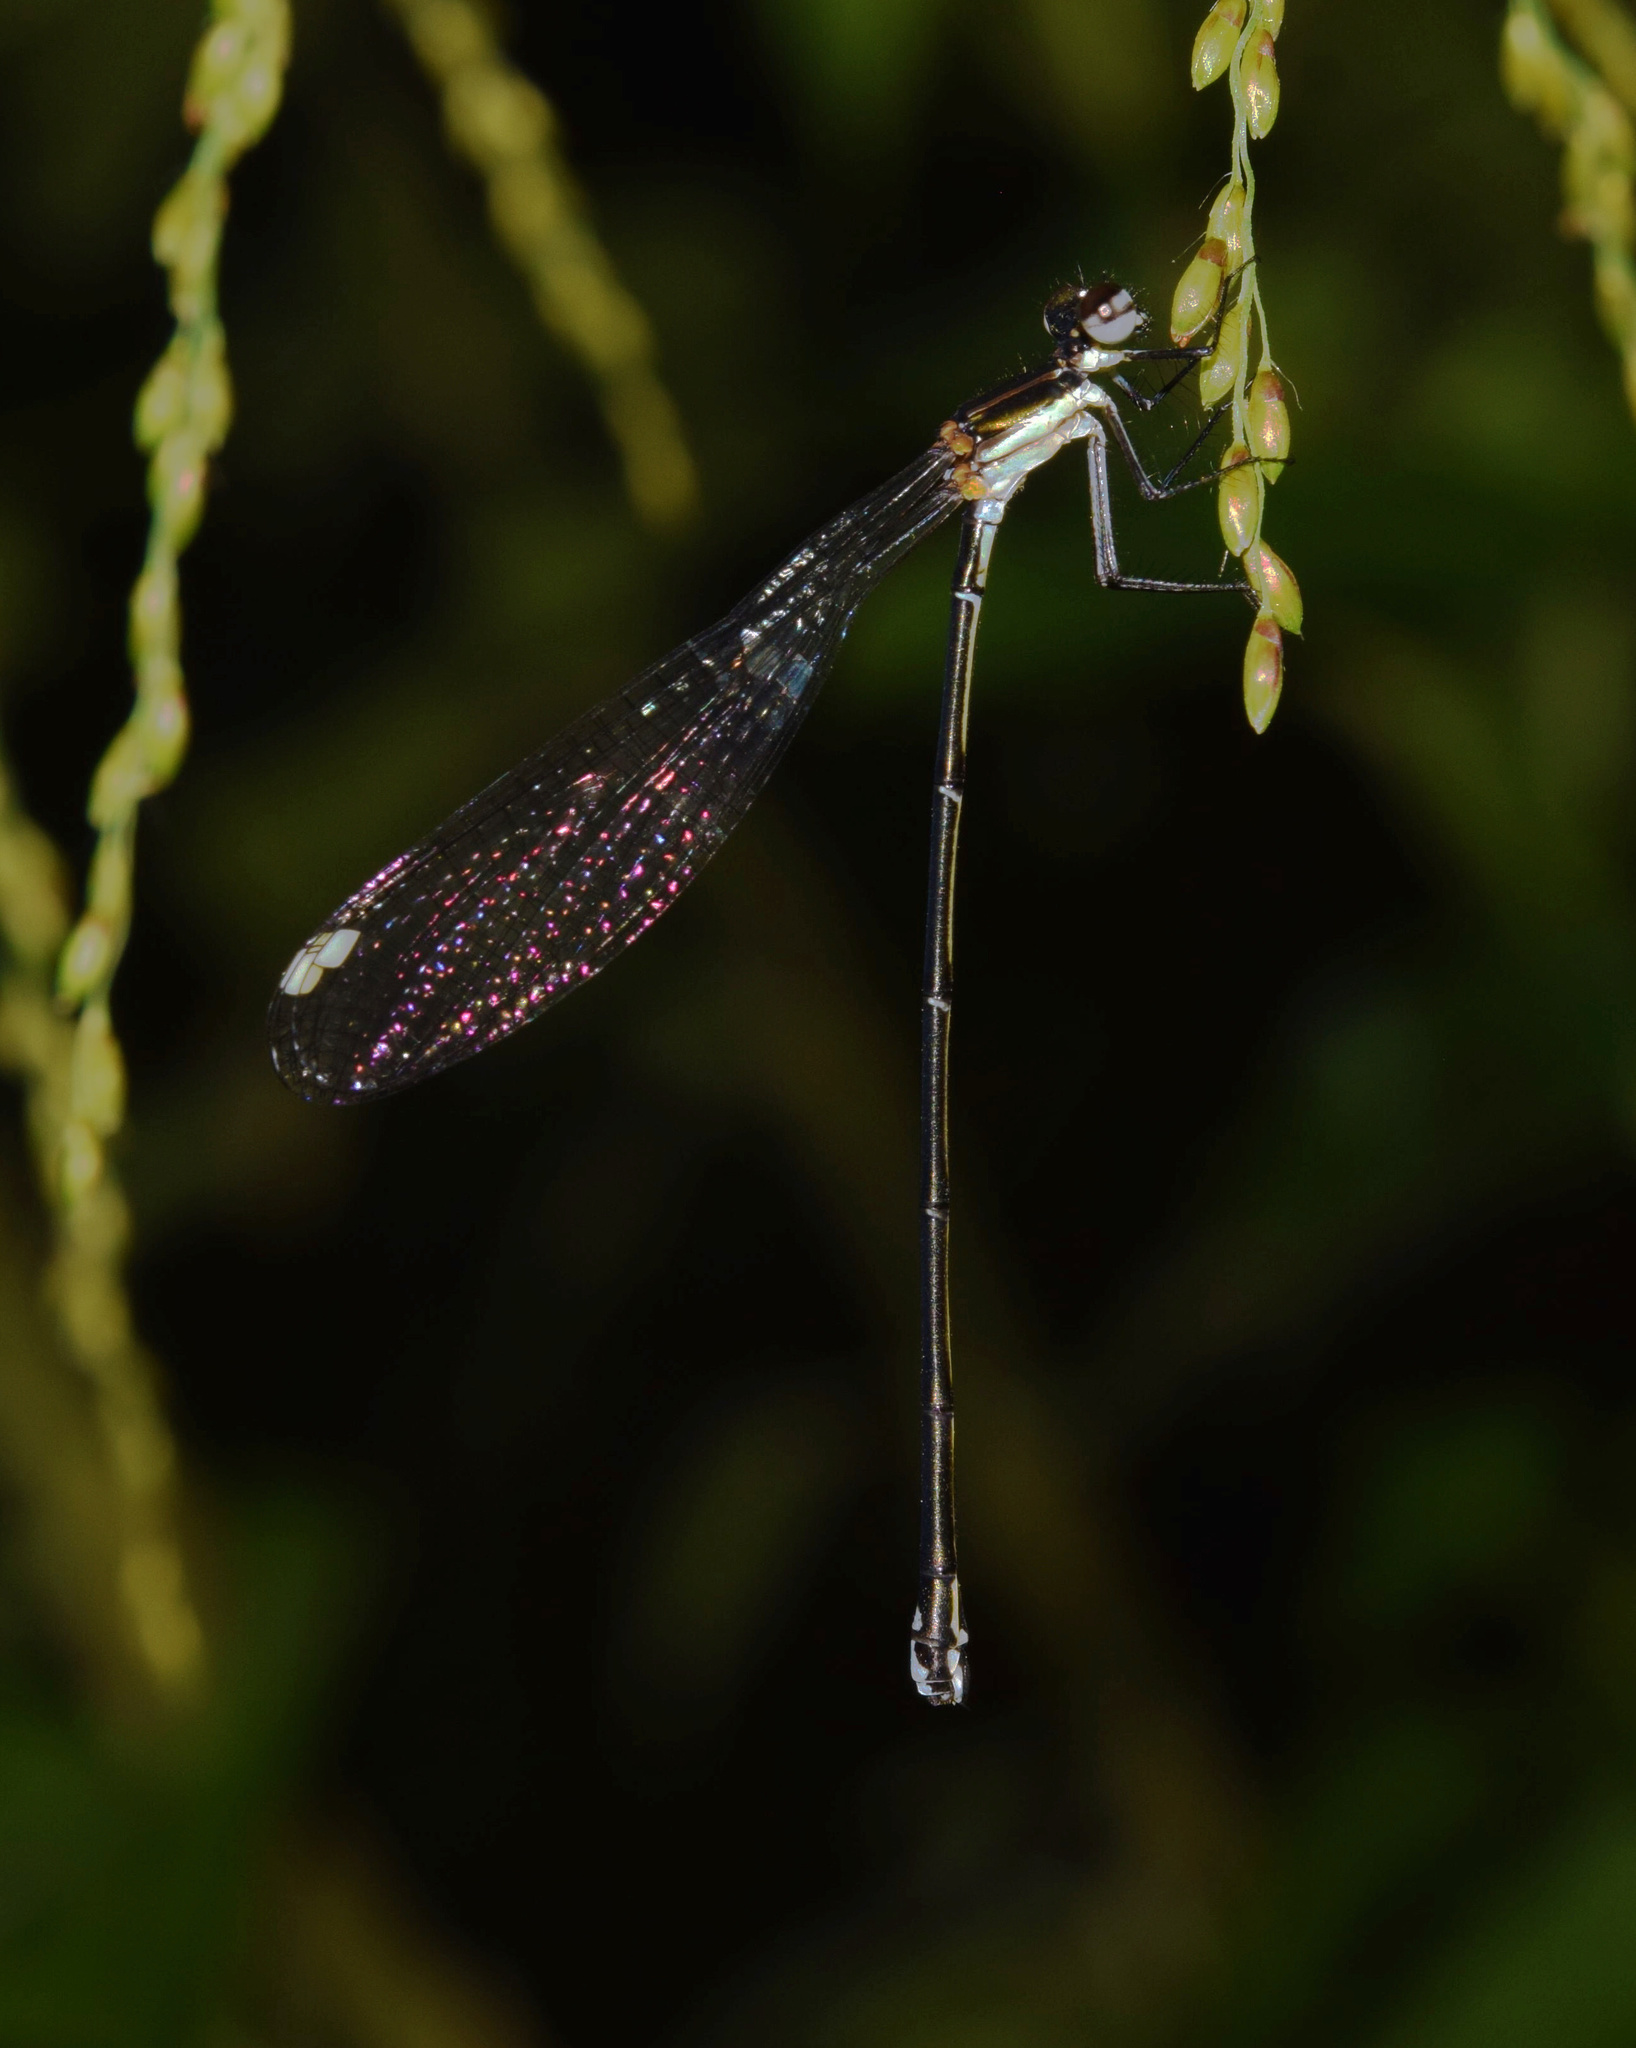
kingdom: Animalia
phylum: Arthropoda
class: Insecta
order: Odonata
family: Platycnemididae
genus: Allocnemis
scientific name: Allocnemis leucosticta
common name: Goldtail
